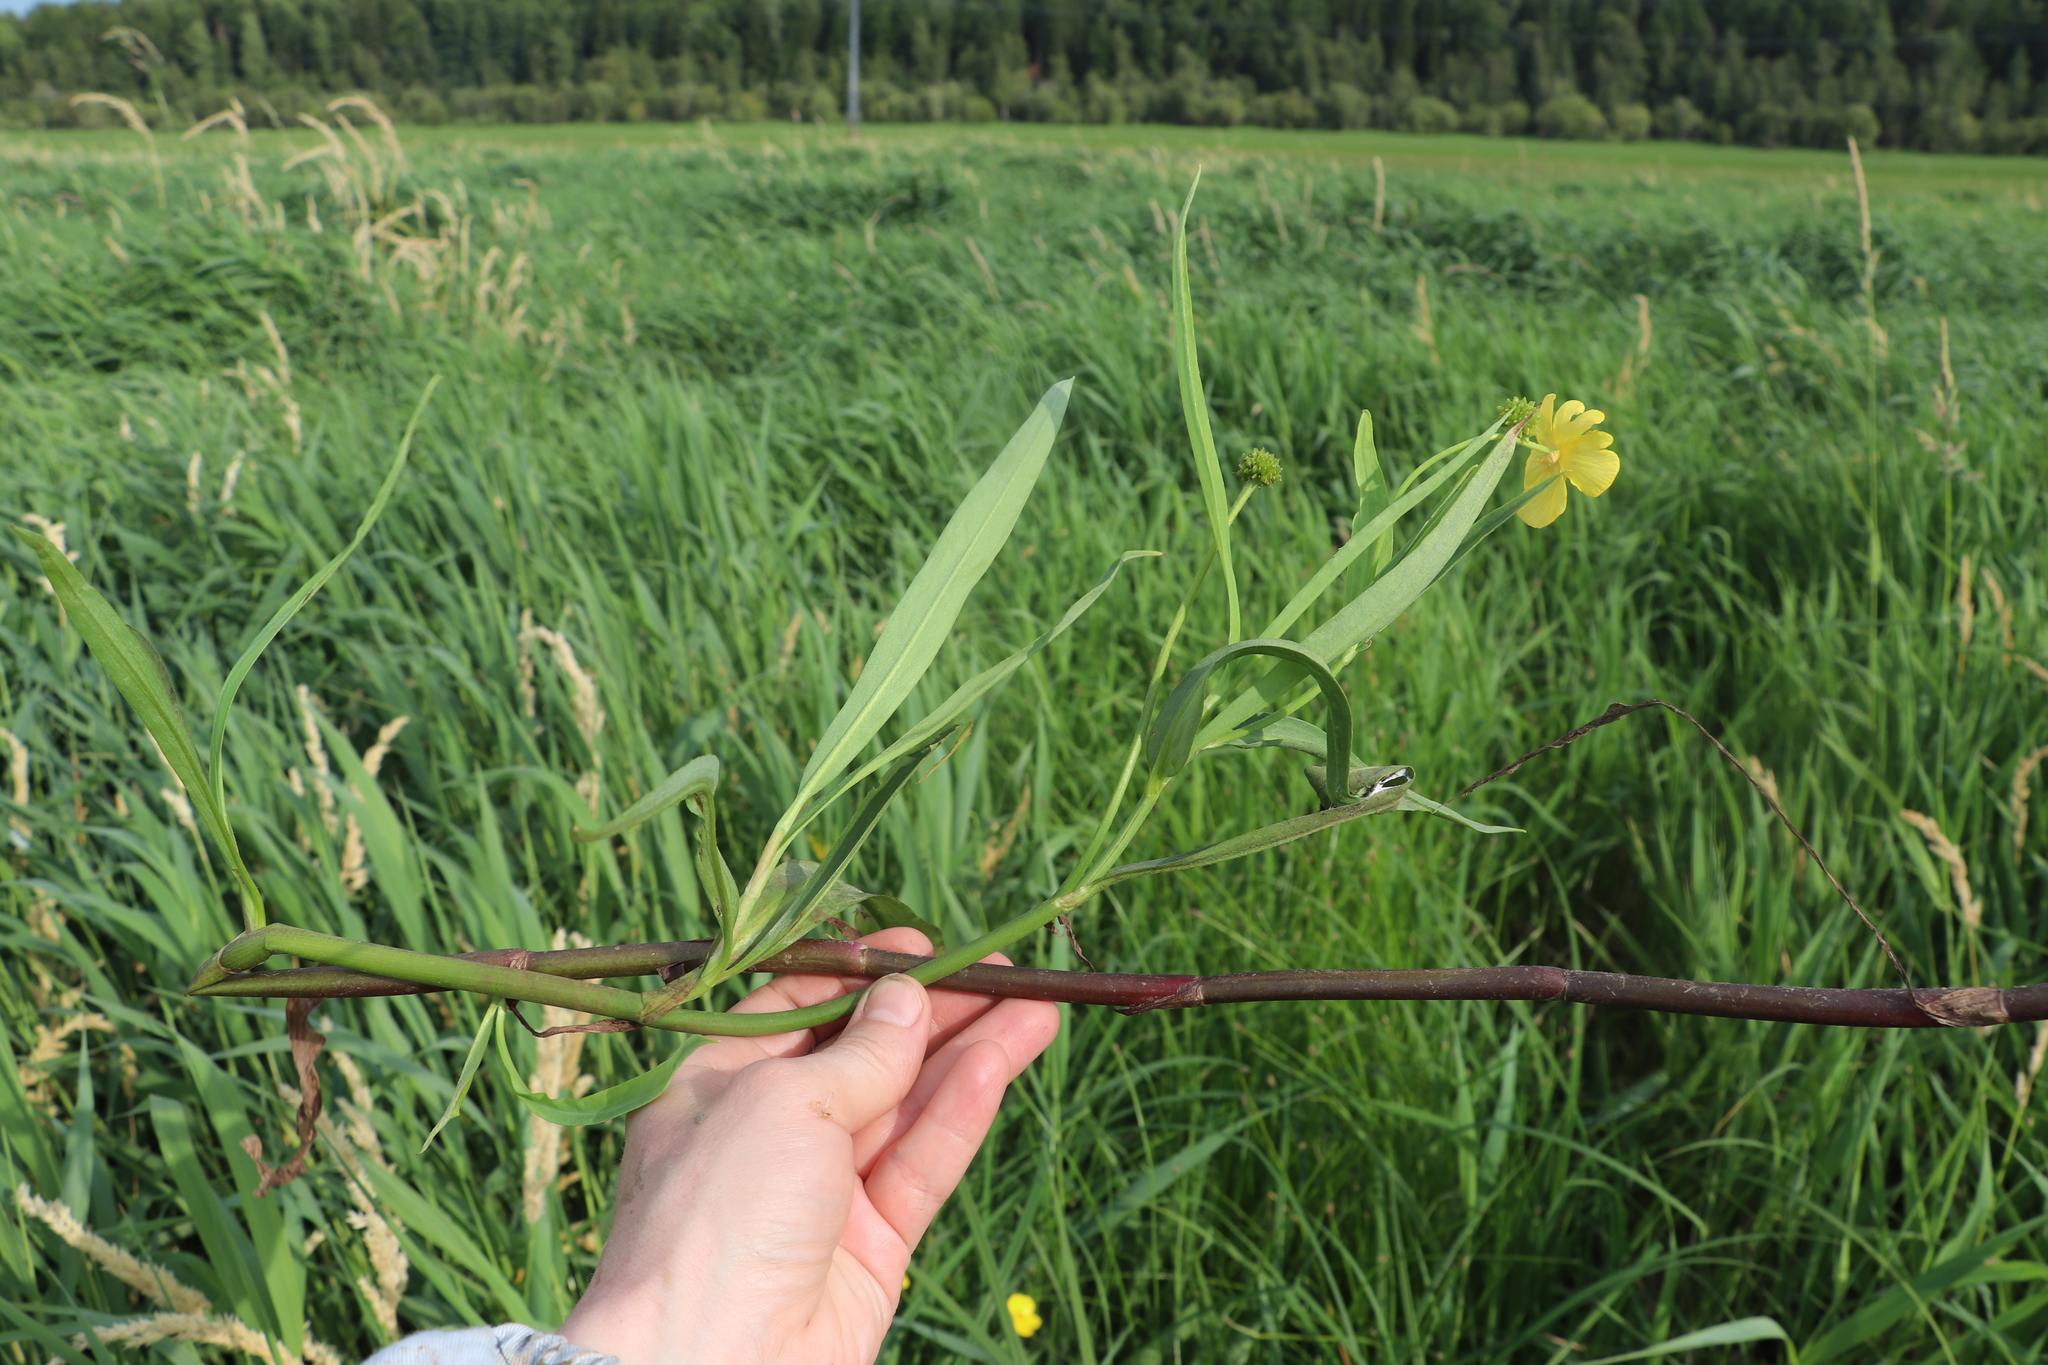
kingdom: Plantae
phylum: Tracheophyta
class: Magnoliopsida
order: Ranunculales
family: Ranunculaceae
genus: Ranunculus
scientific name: Ranunculus lingua
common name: Greater spearwort
